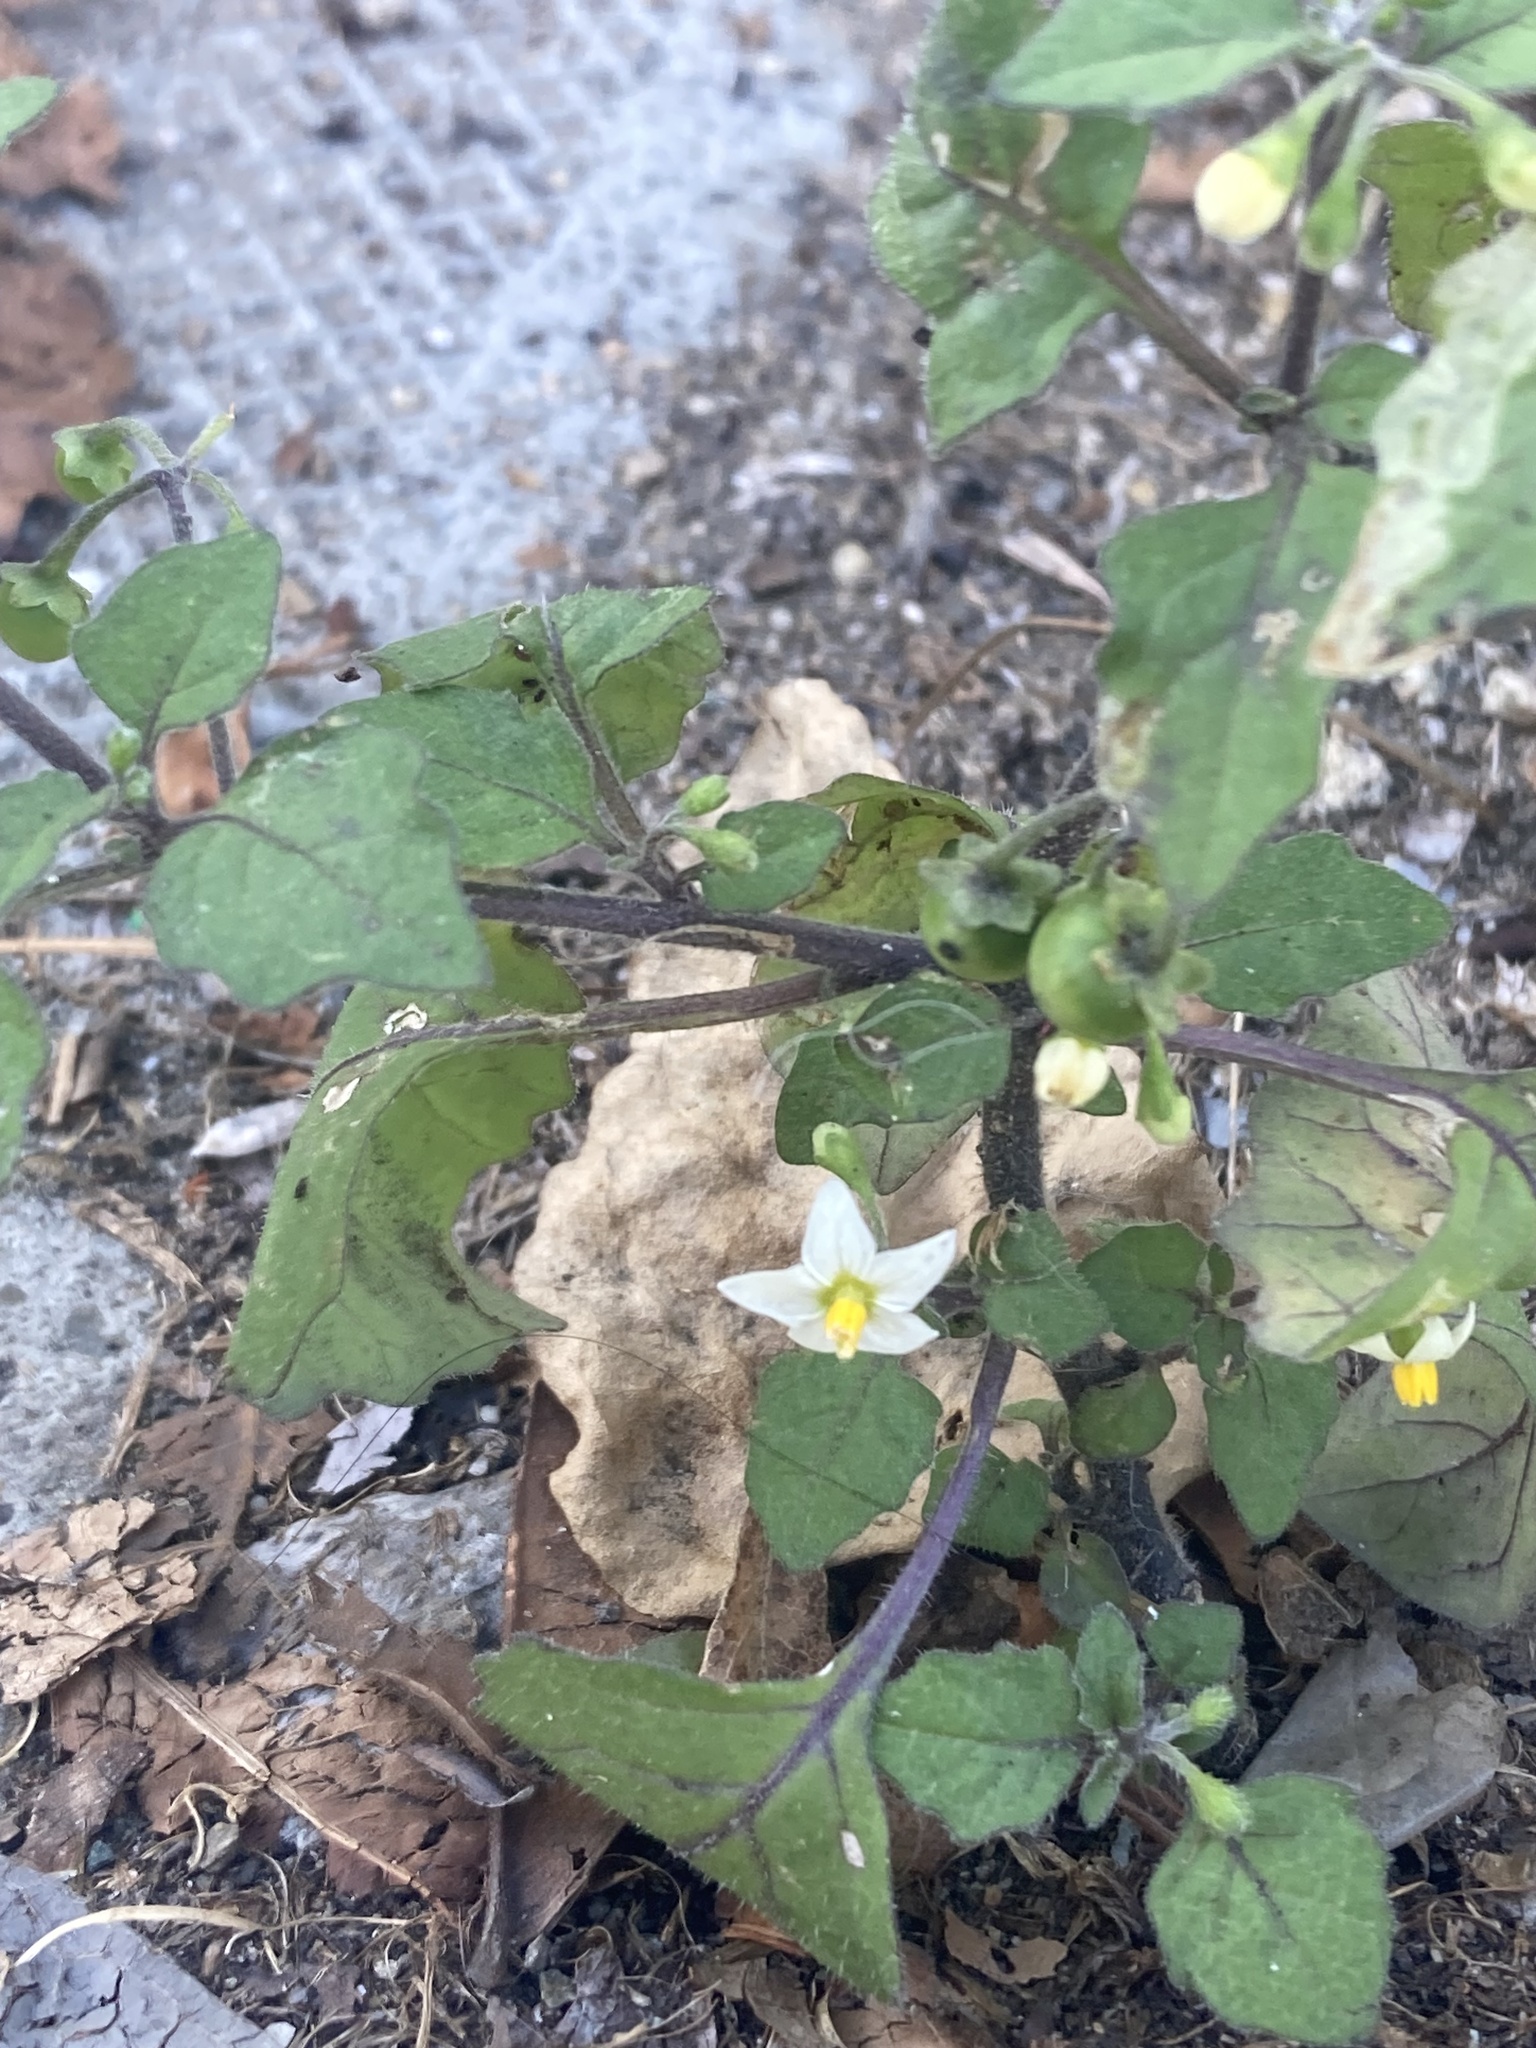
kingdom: Plantae
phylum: Tracheophyta
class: Magnoliopsida
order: Solanales
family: Solanaceae
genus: Solanum
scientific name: Solanum nigrum
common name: Black nightshade
